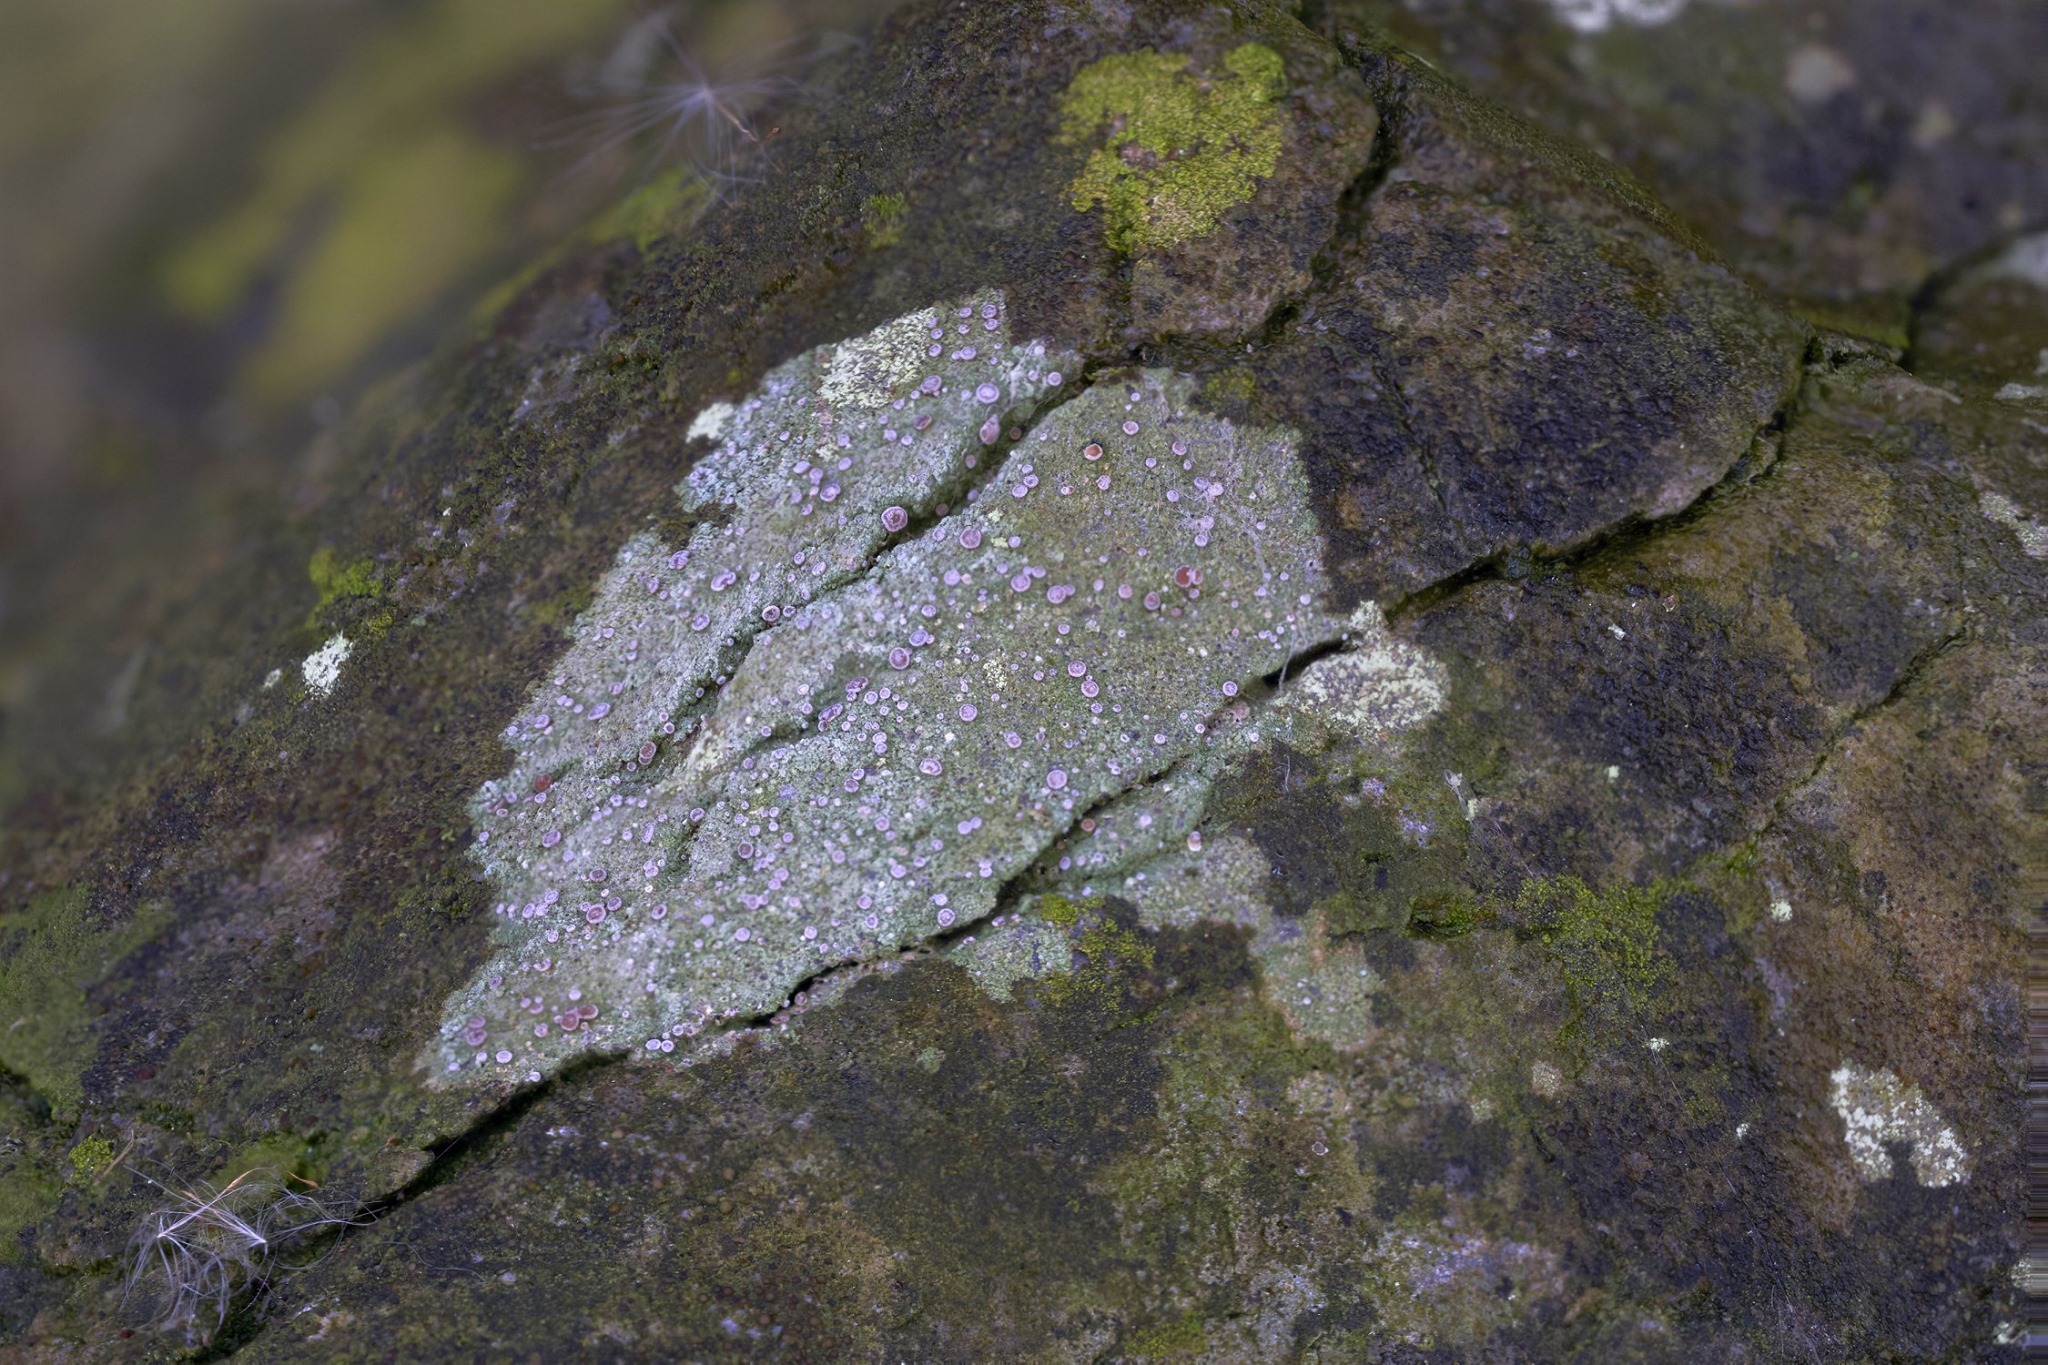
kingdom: Fungi
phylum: Ascomycota
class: Lecanoromycetes
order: Lecanorales
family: Ramalinaceae
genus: Bacidia
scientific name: Bacidia suffusa
